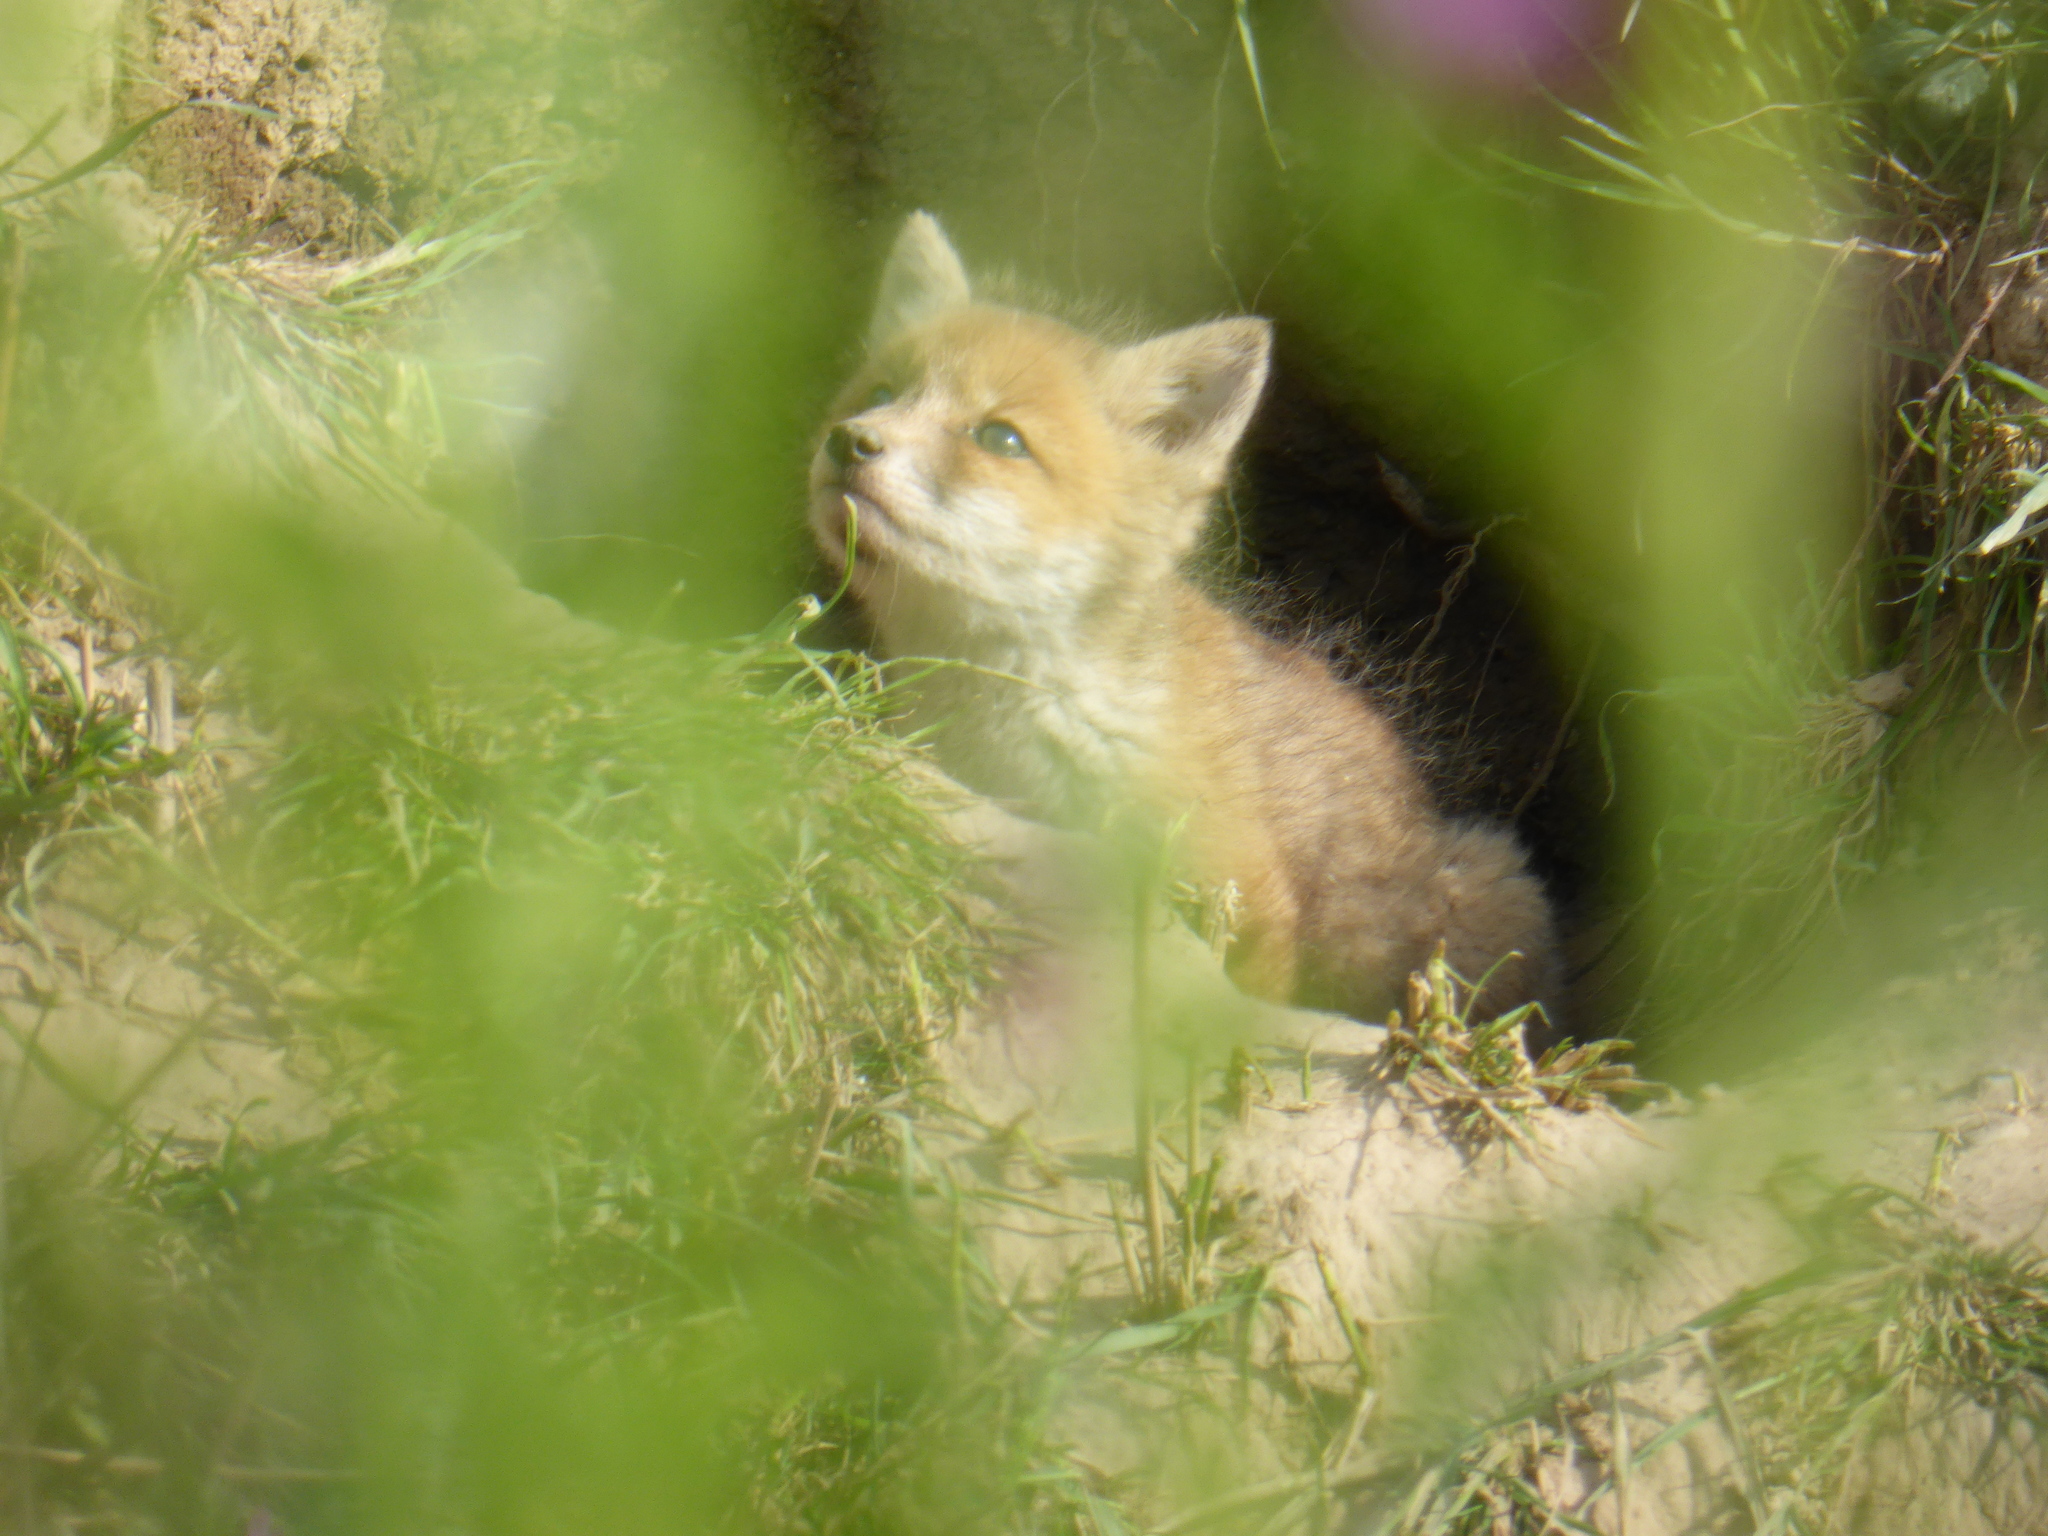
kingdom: Animalia
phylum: Chordata
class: Mammalia
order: Carnivora
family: Canidae
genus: Vulpes
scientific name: Vulpes vulpes
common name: Red fox
